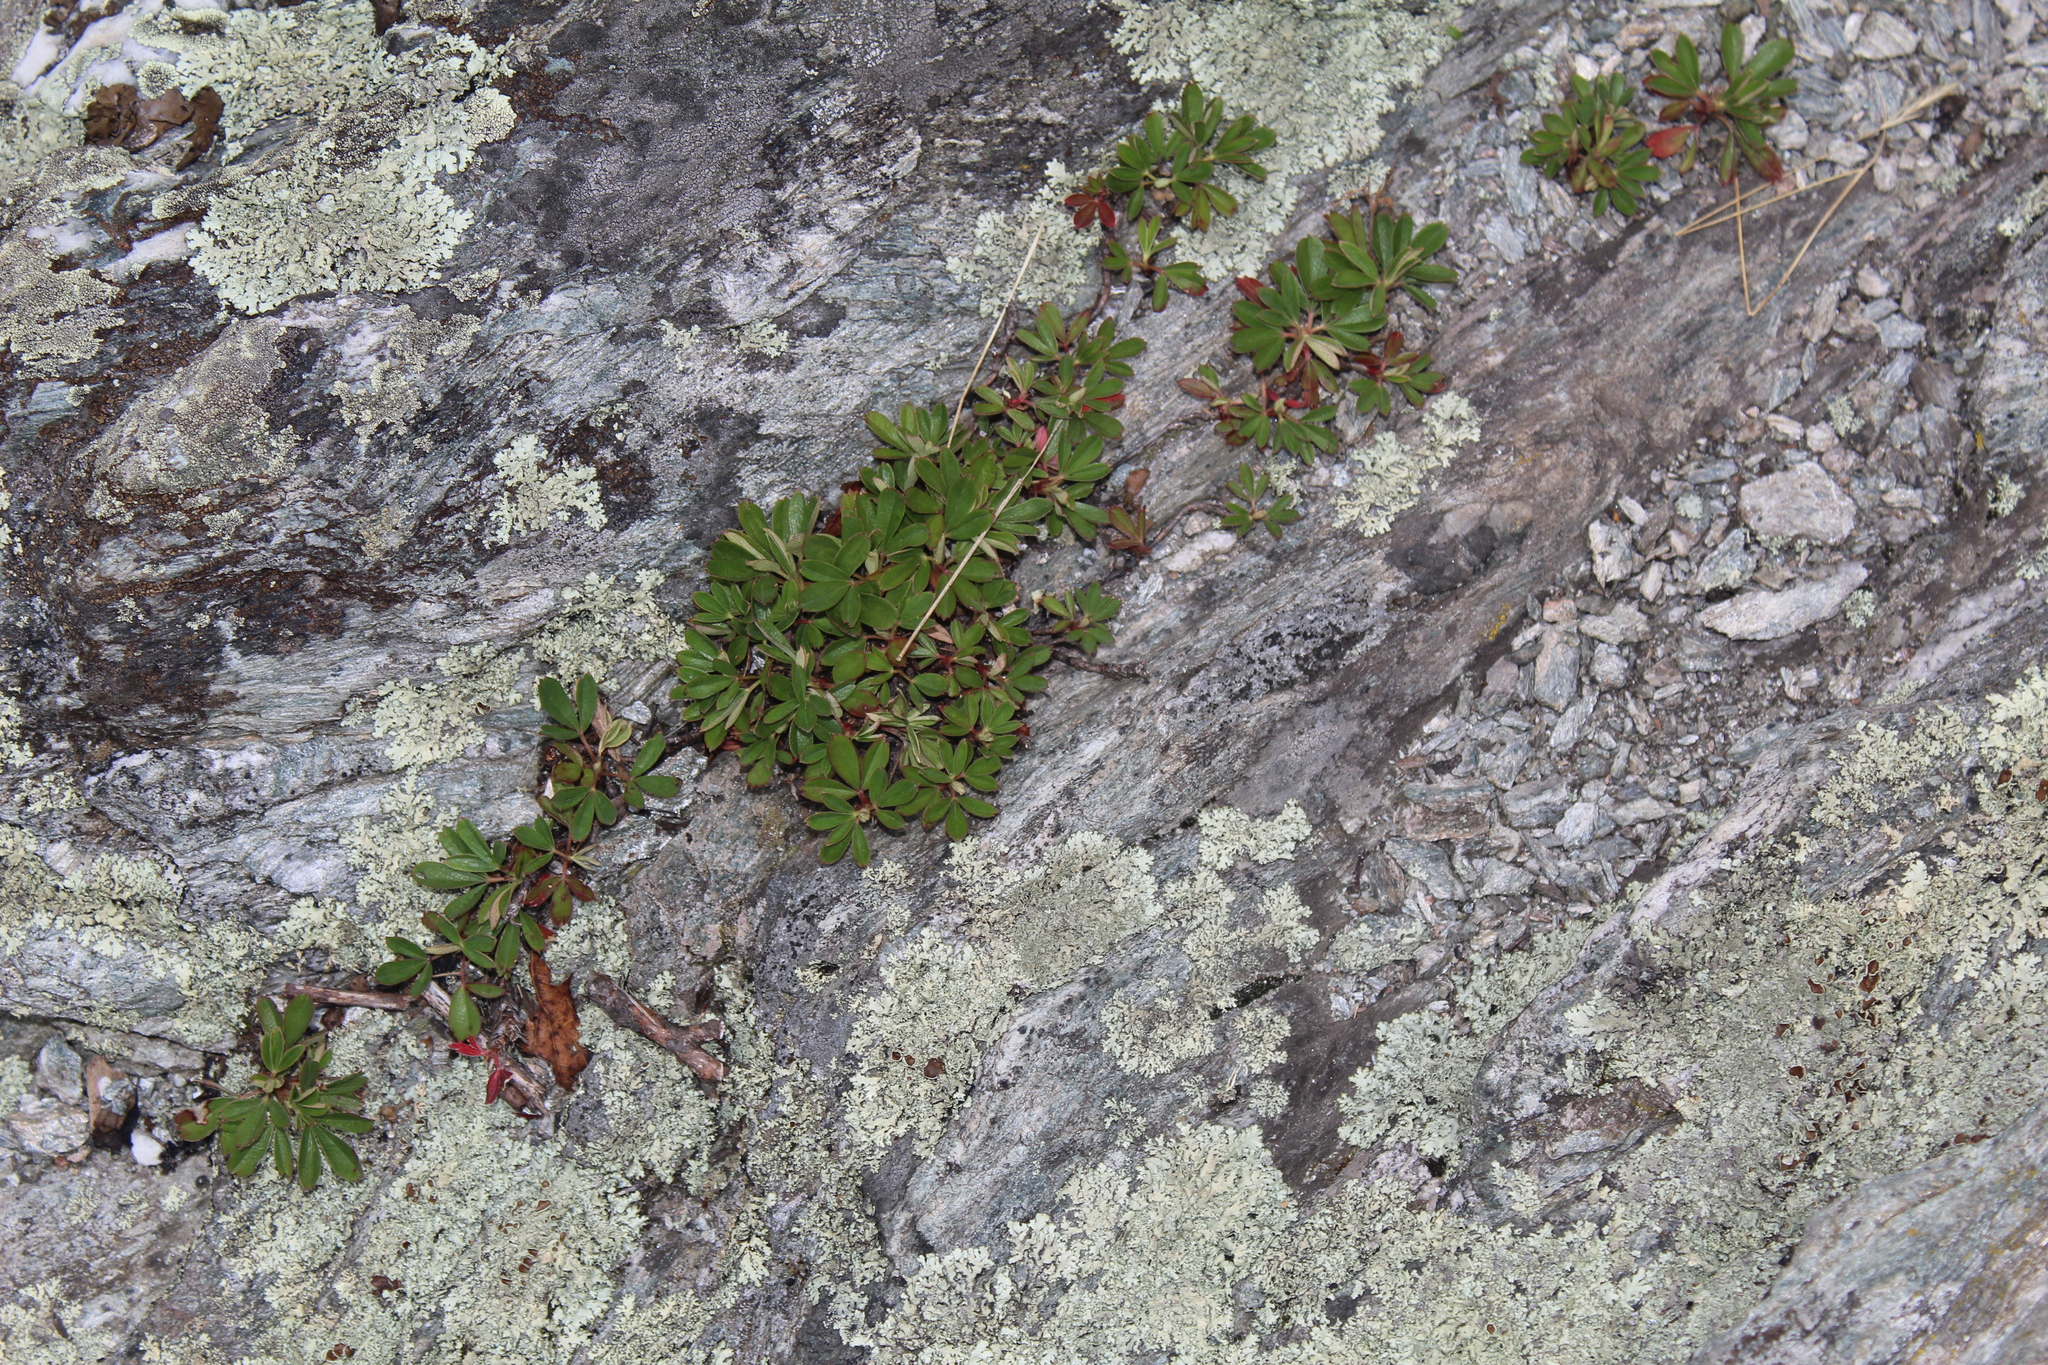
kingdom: Plantae
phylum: Tracheophyta
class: Magnoliopsida
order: Rosales
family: Rosaceae
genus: Sibbaldia
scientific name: Sibbaldia tridentata
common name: Three-toothed cinquefoil
